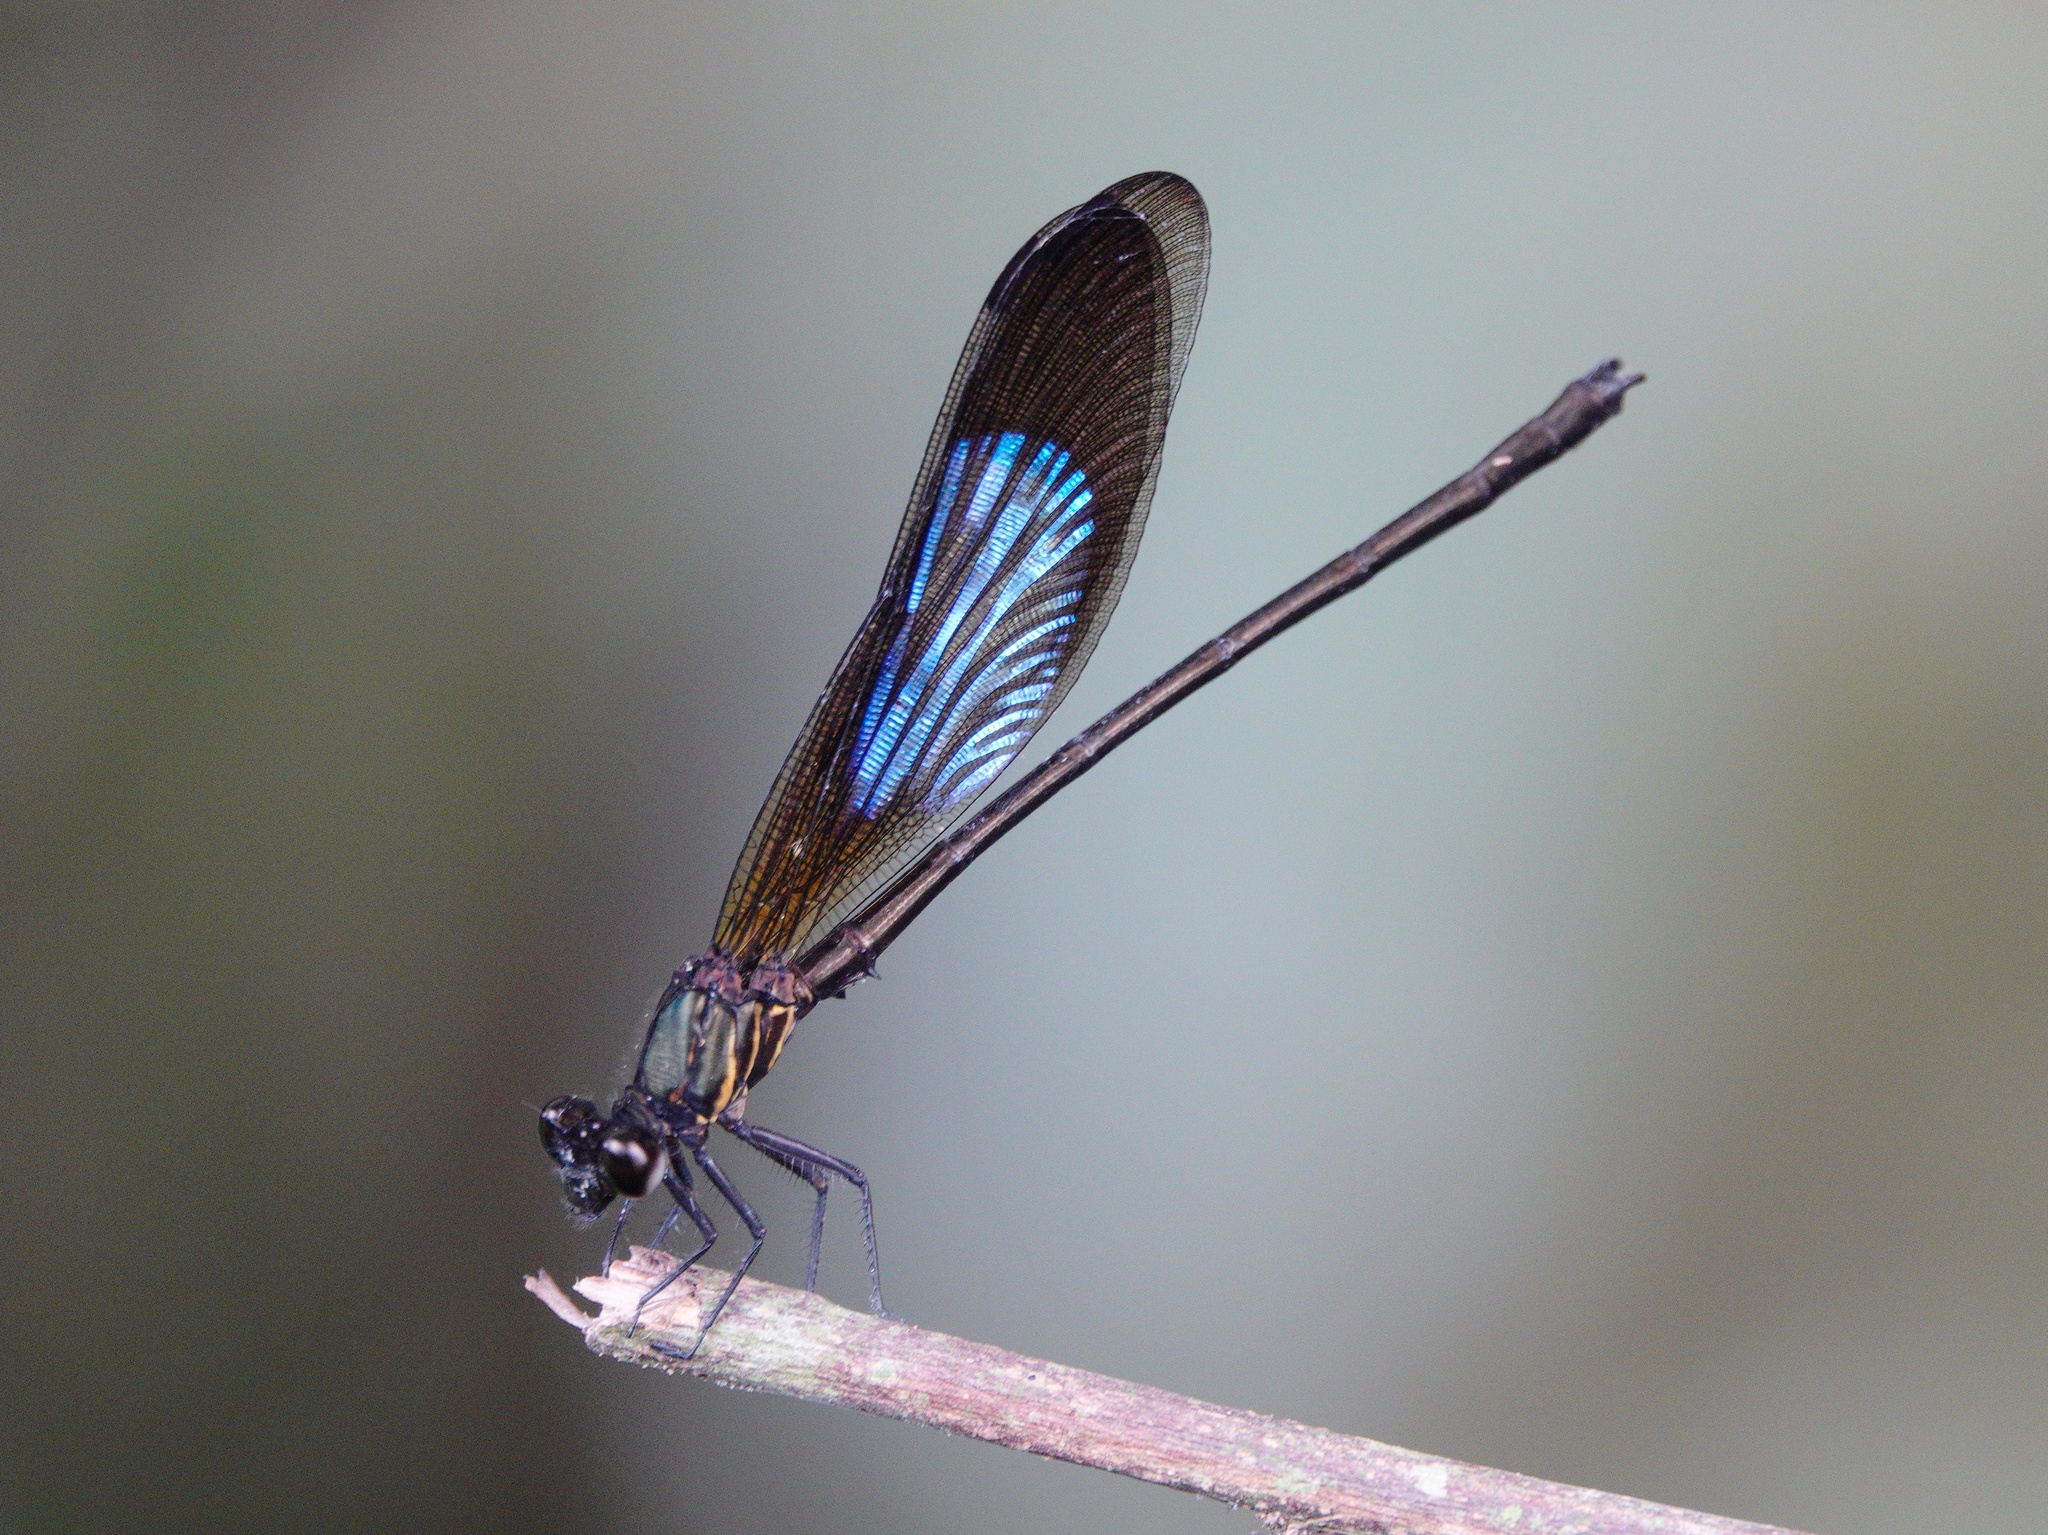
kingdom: Animalia
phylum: Arthropoda
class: Insecta
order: Odonata
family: Euphaeidae
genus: Euphaea
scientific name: Euphaea variegata
